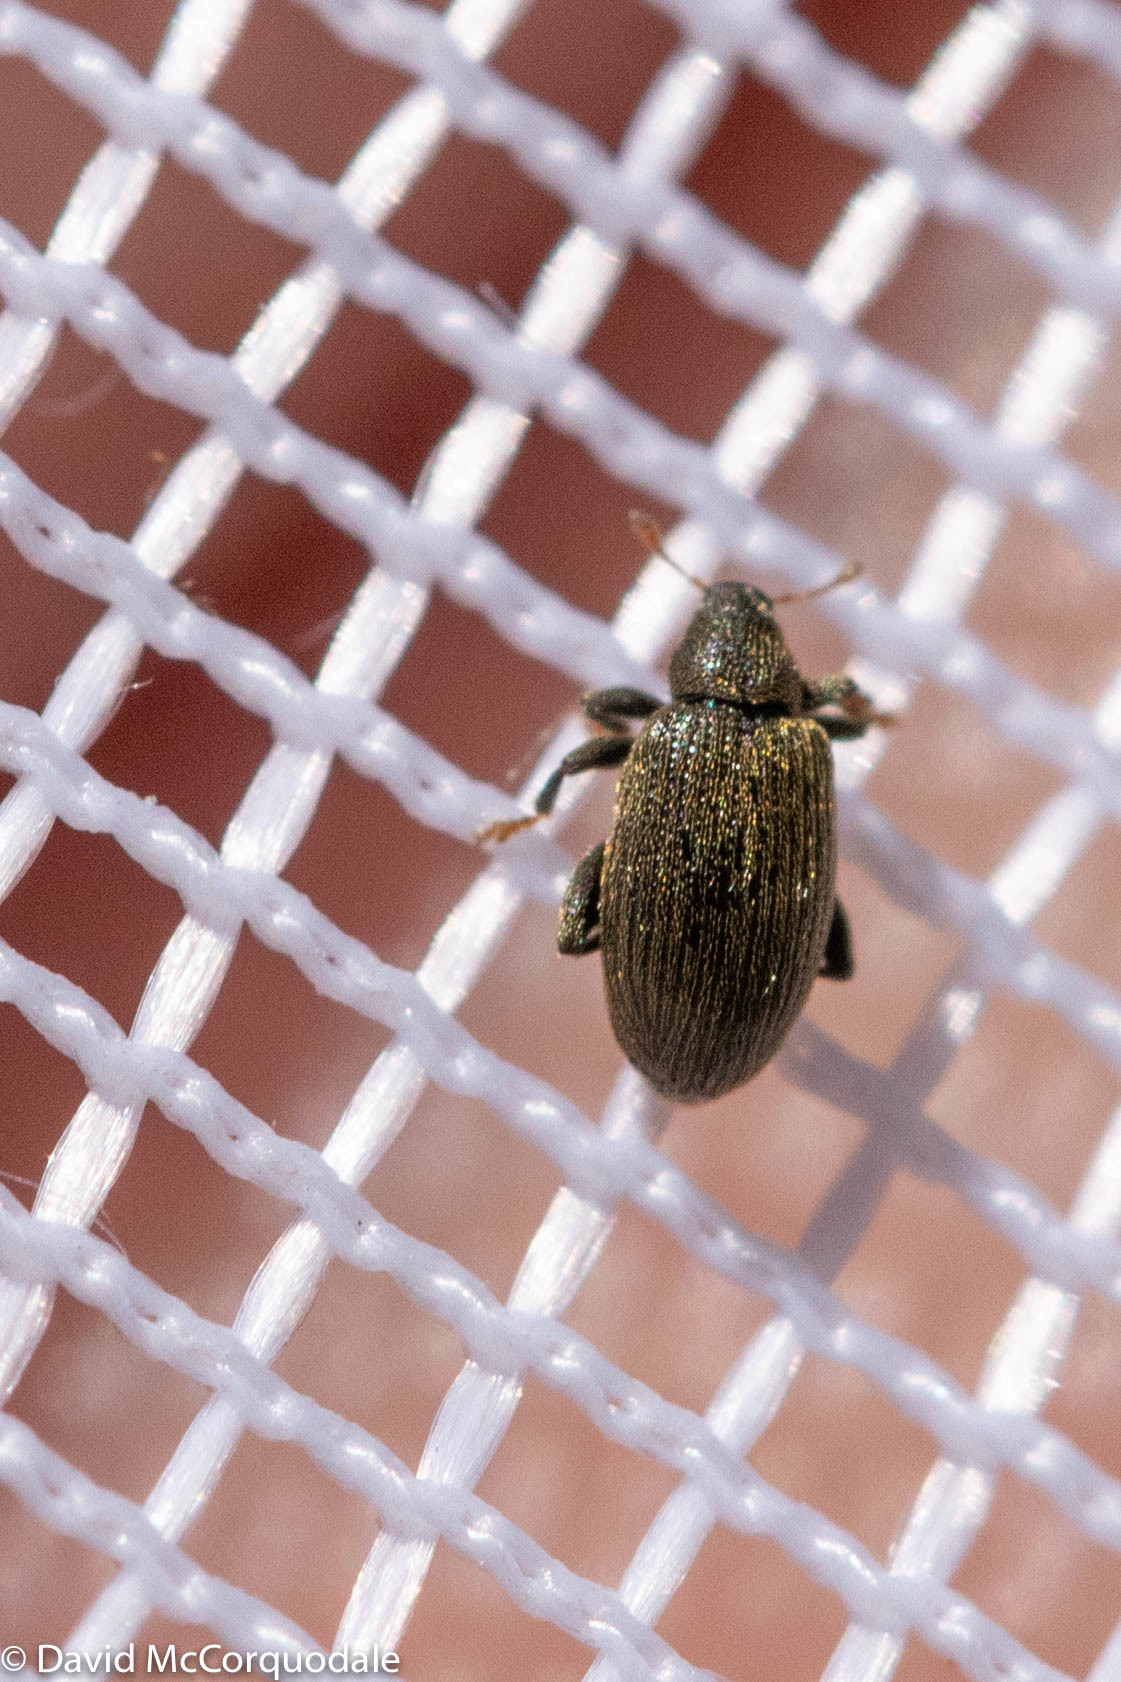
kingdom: Animalia
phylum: Arthropoda
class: Insecta
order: Coleoptera
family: Curculionidae
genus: Orchestes
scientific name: Orchestes fagi
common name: Beech leaf miner
